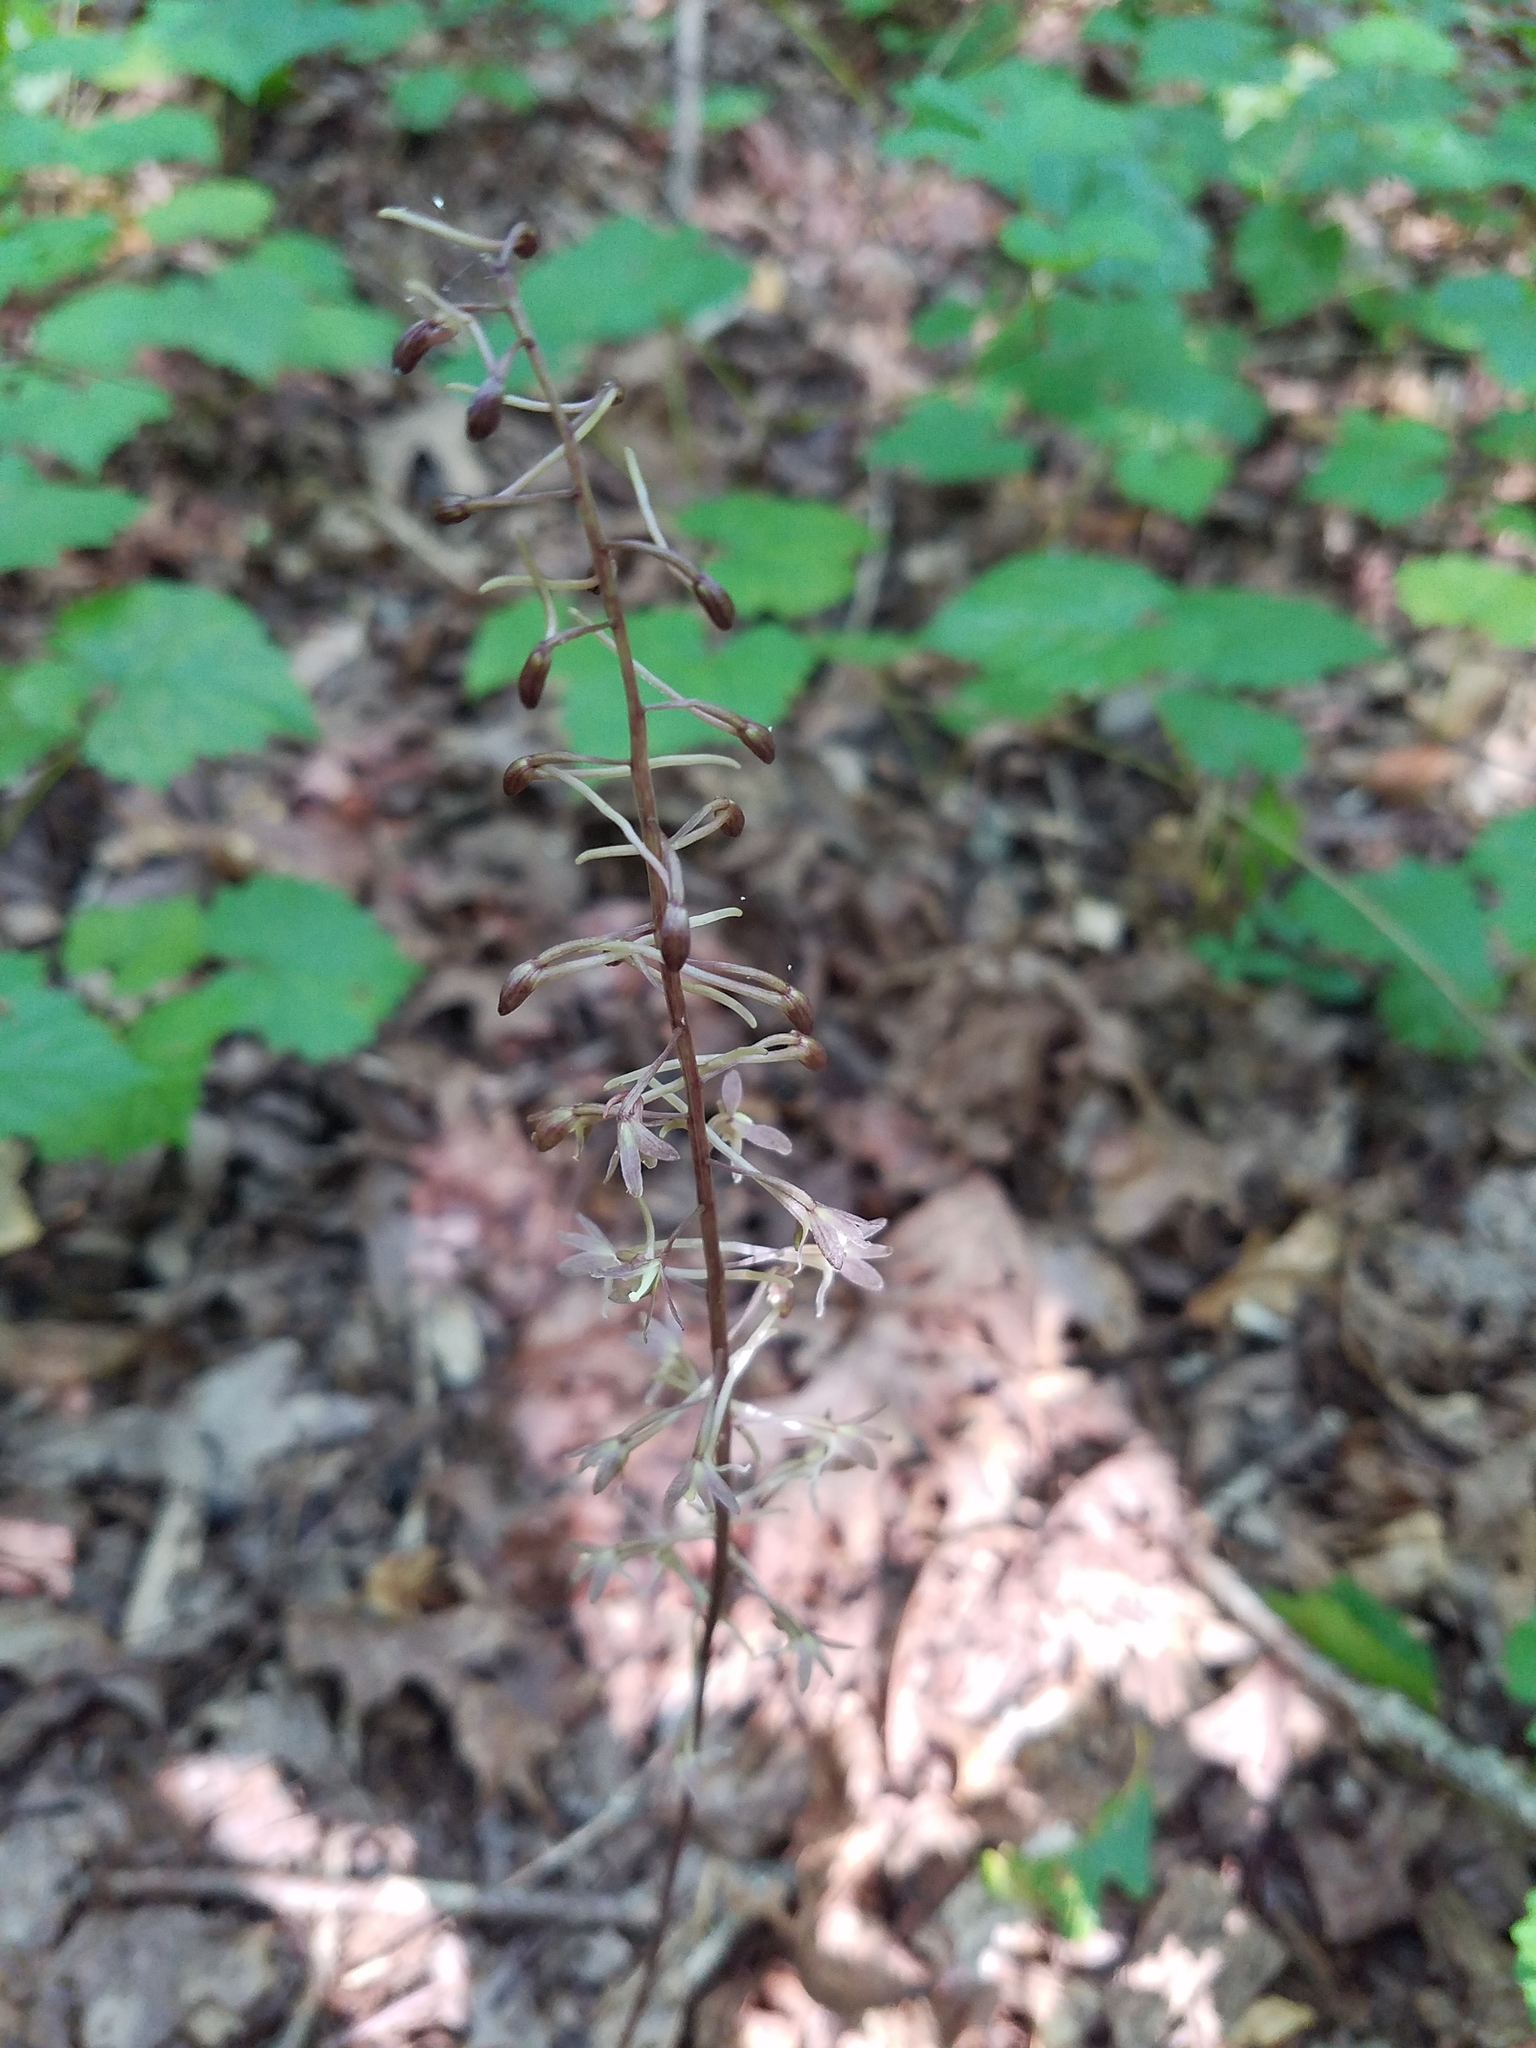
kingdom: Plantae
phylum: Tracheophyta
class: Liliopsida
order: Asparagales
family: Orchidaceae
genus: Tipularia
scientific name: Tipularia discolor
